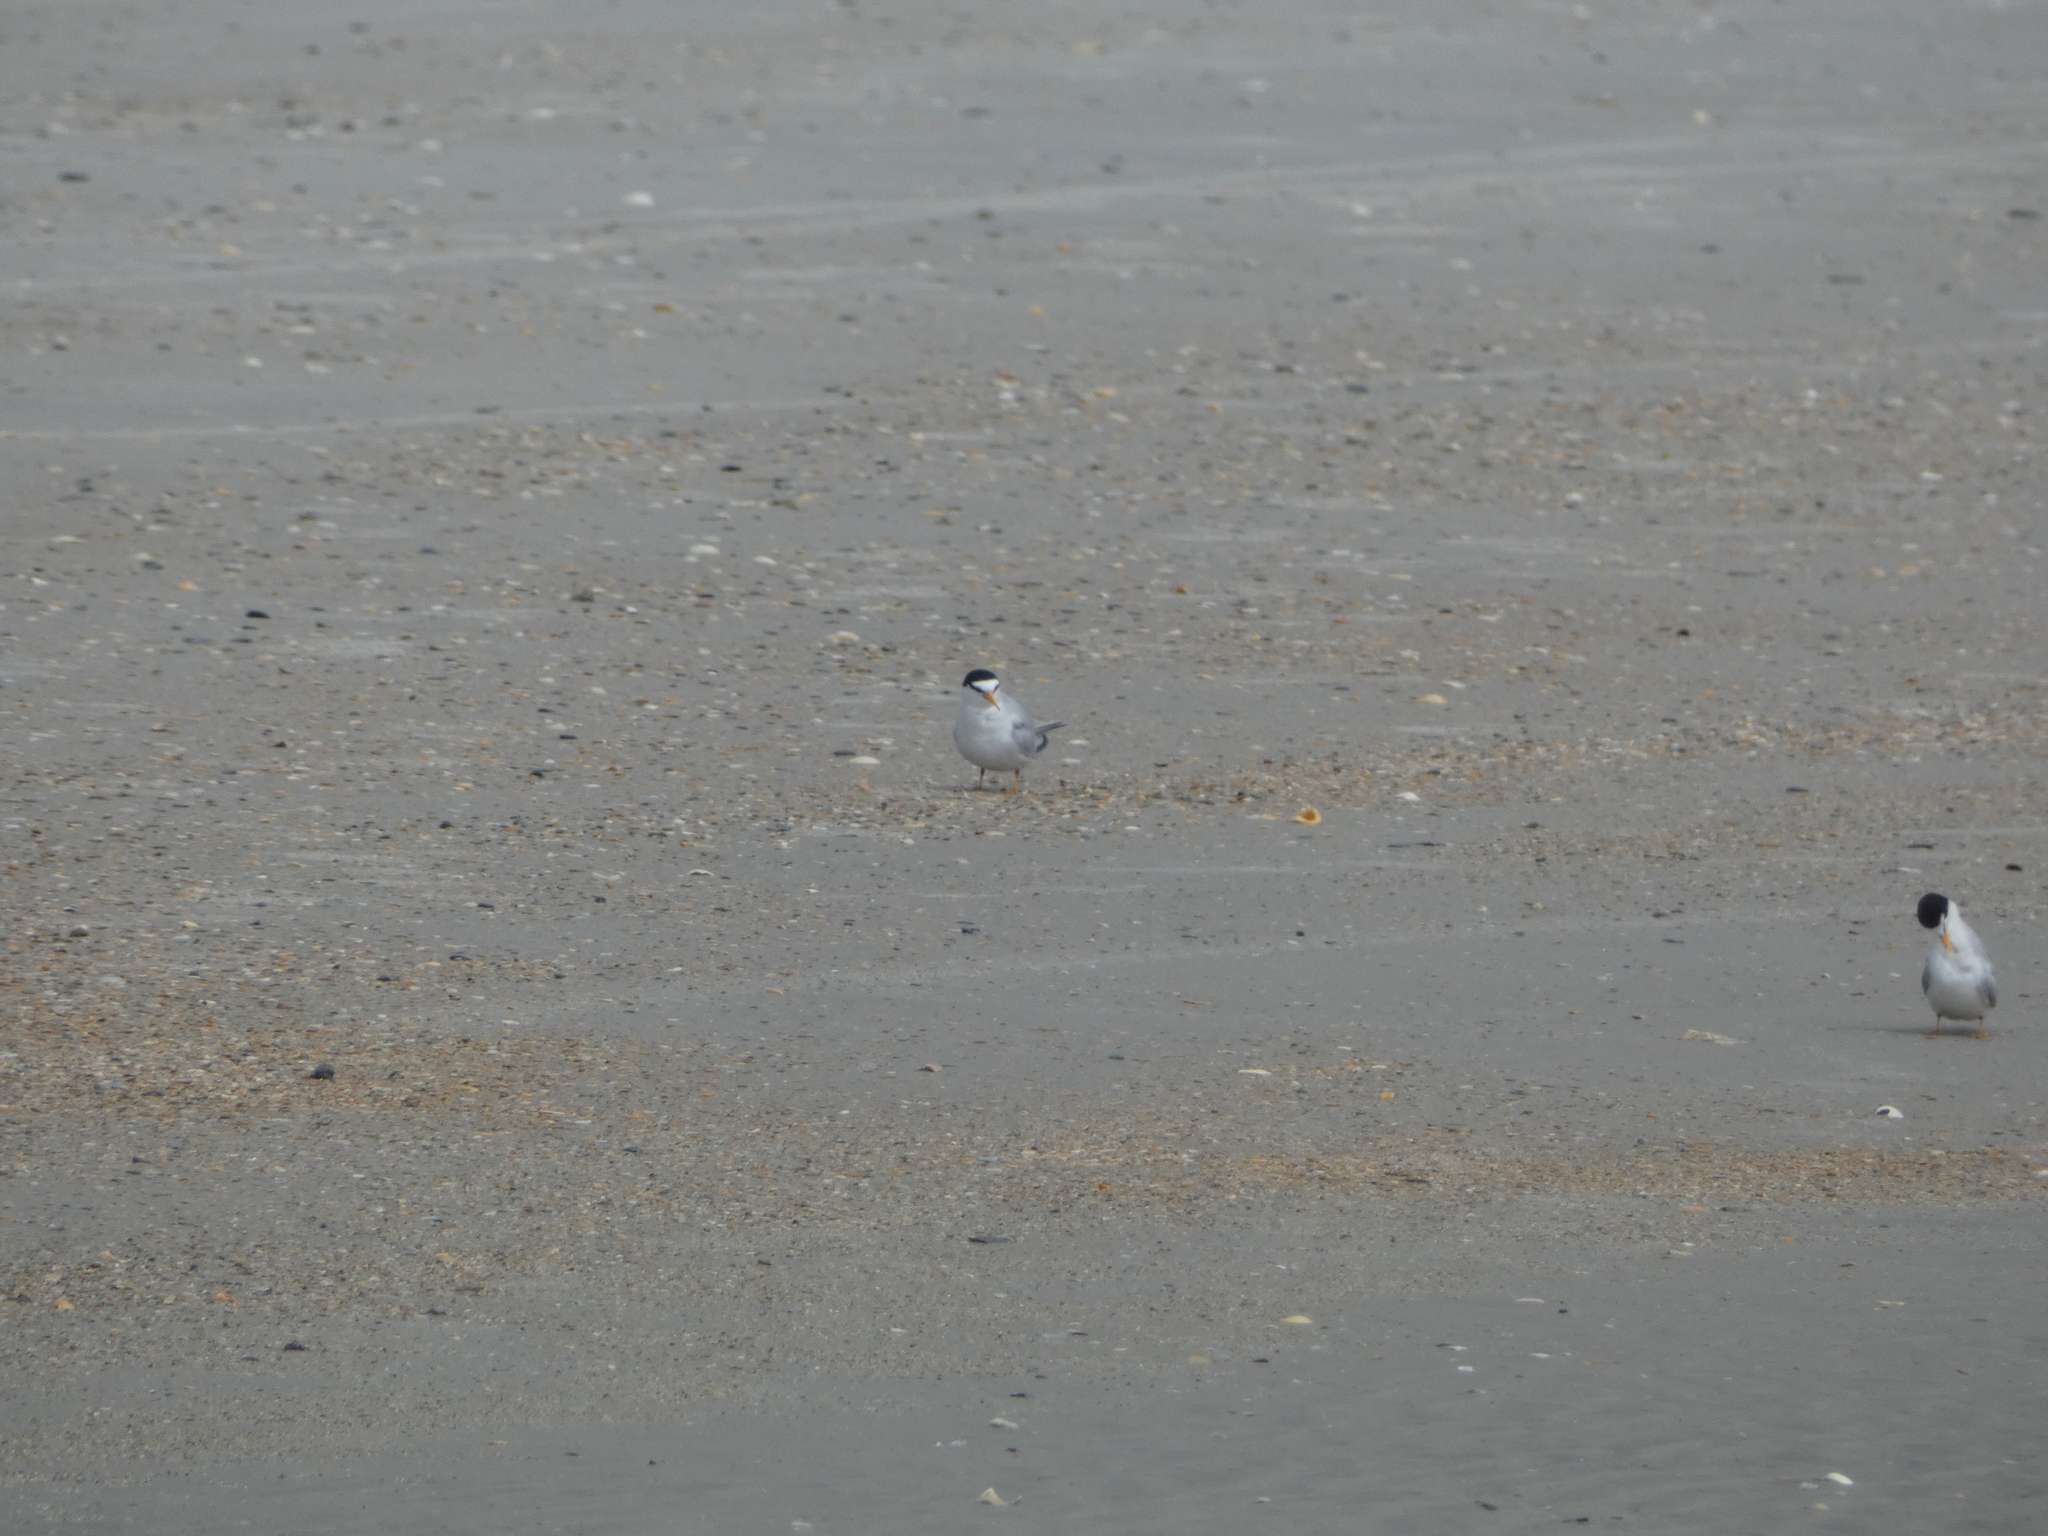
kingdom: Animalia
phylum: Chordata
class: Aves
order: Charadriiformes
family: Laridae
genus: Sternula
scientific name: Sternula antillarum
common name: Least tern
